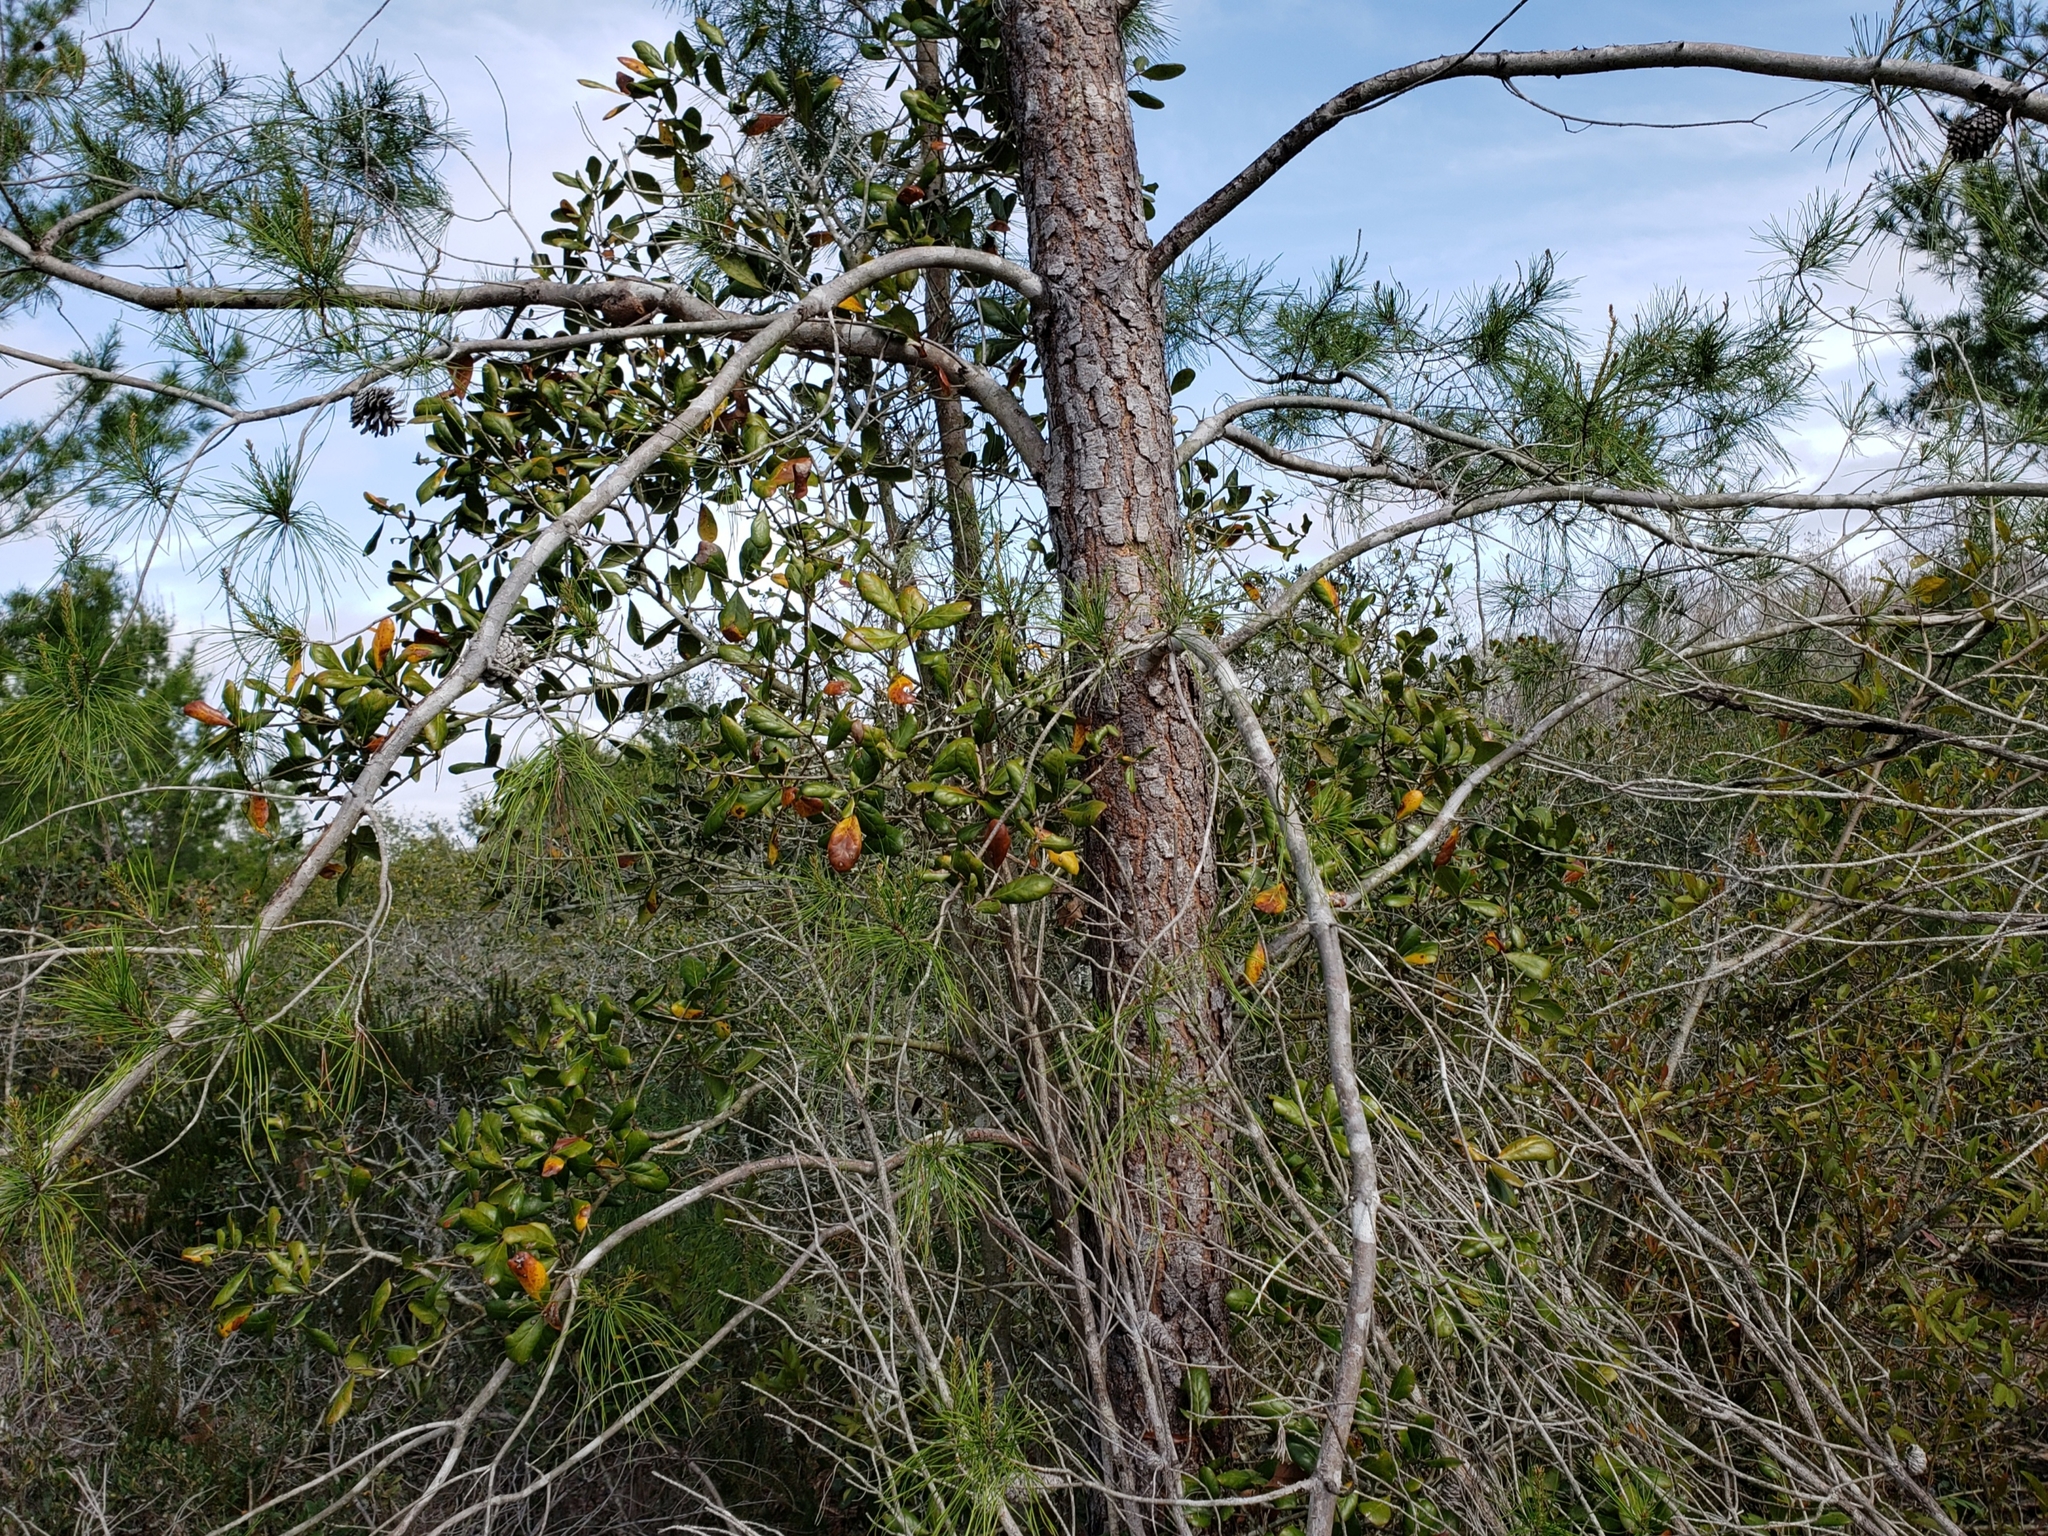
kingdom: Plantae
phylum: Tracheophyta
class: Pinopsida
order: Pinales
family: Pinaceae
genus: Pinus
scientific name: Pinus clausa
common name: Sand pine
